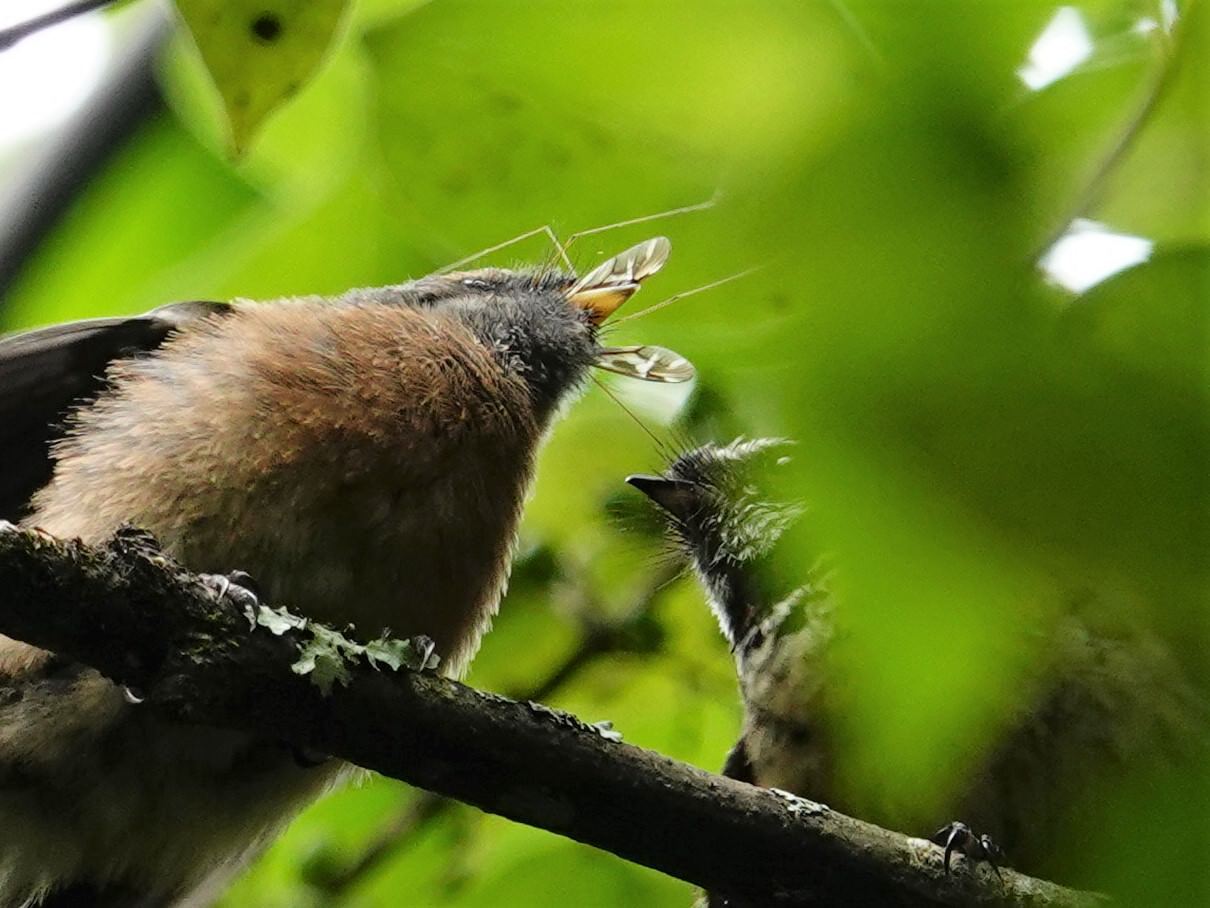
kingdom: Animalia
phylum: Arthropoda
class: Insecta
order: Diptera
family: Tipulidae
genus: Leptotarsus
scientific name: Leptotarsus huttoni
